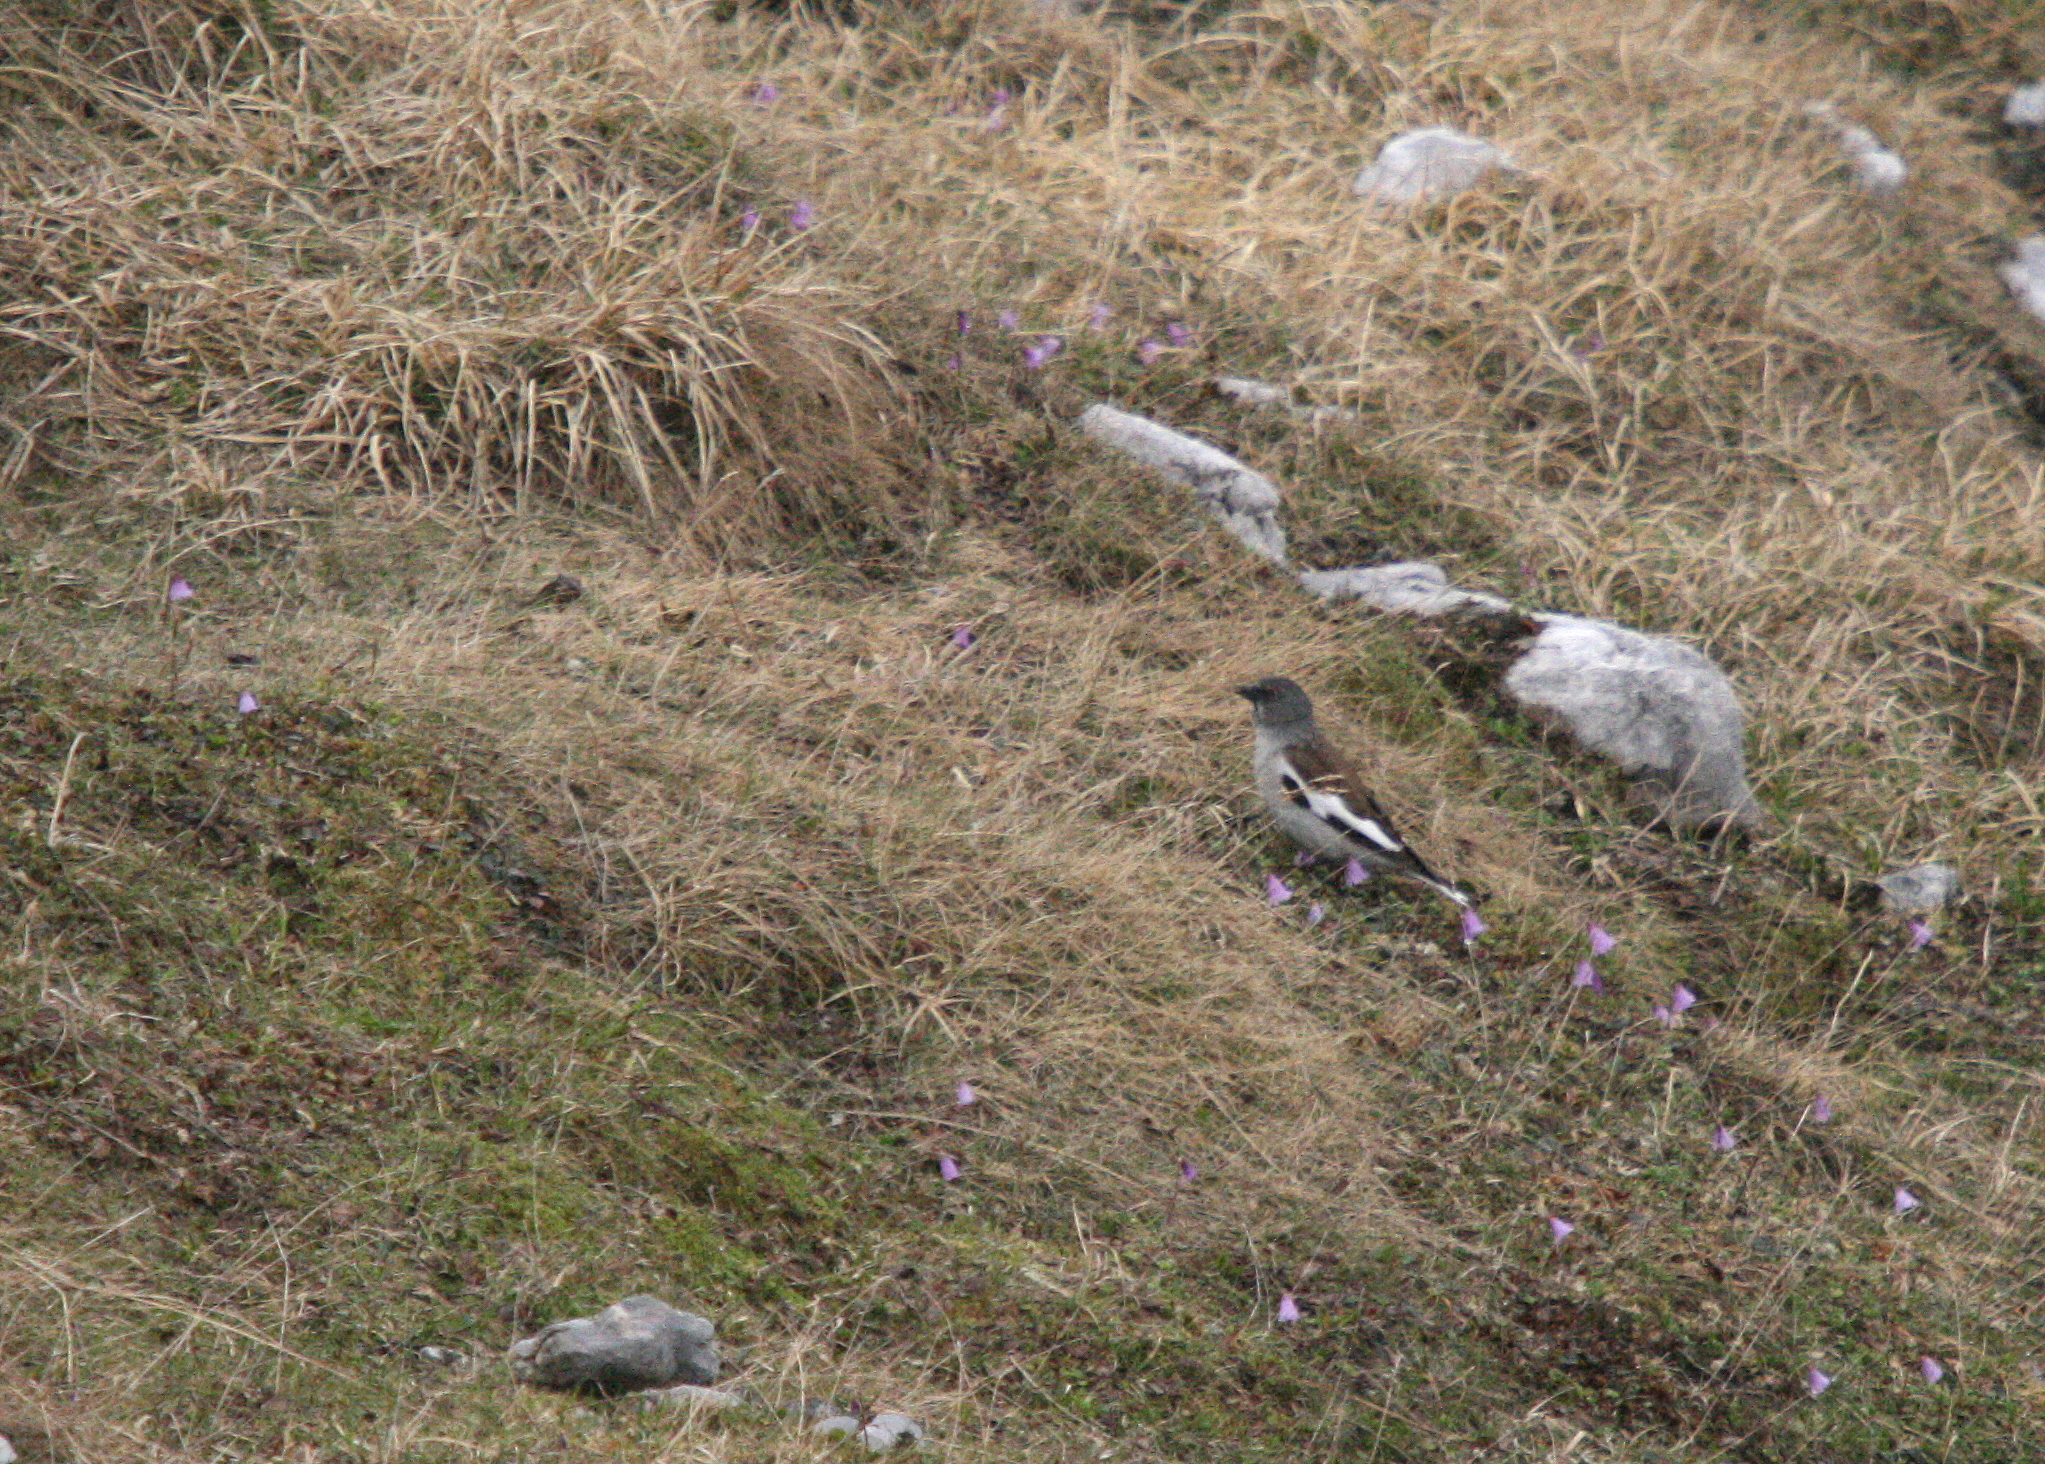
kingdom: Animalia
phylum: Chordata
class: Aves
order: Passeriformes
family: Passeridae
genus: Montifringilla
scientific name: Montifringilla nivalis
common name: White-winged snowfinch
